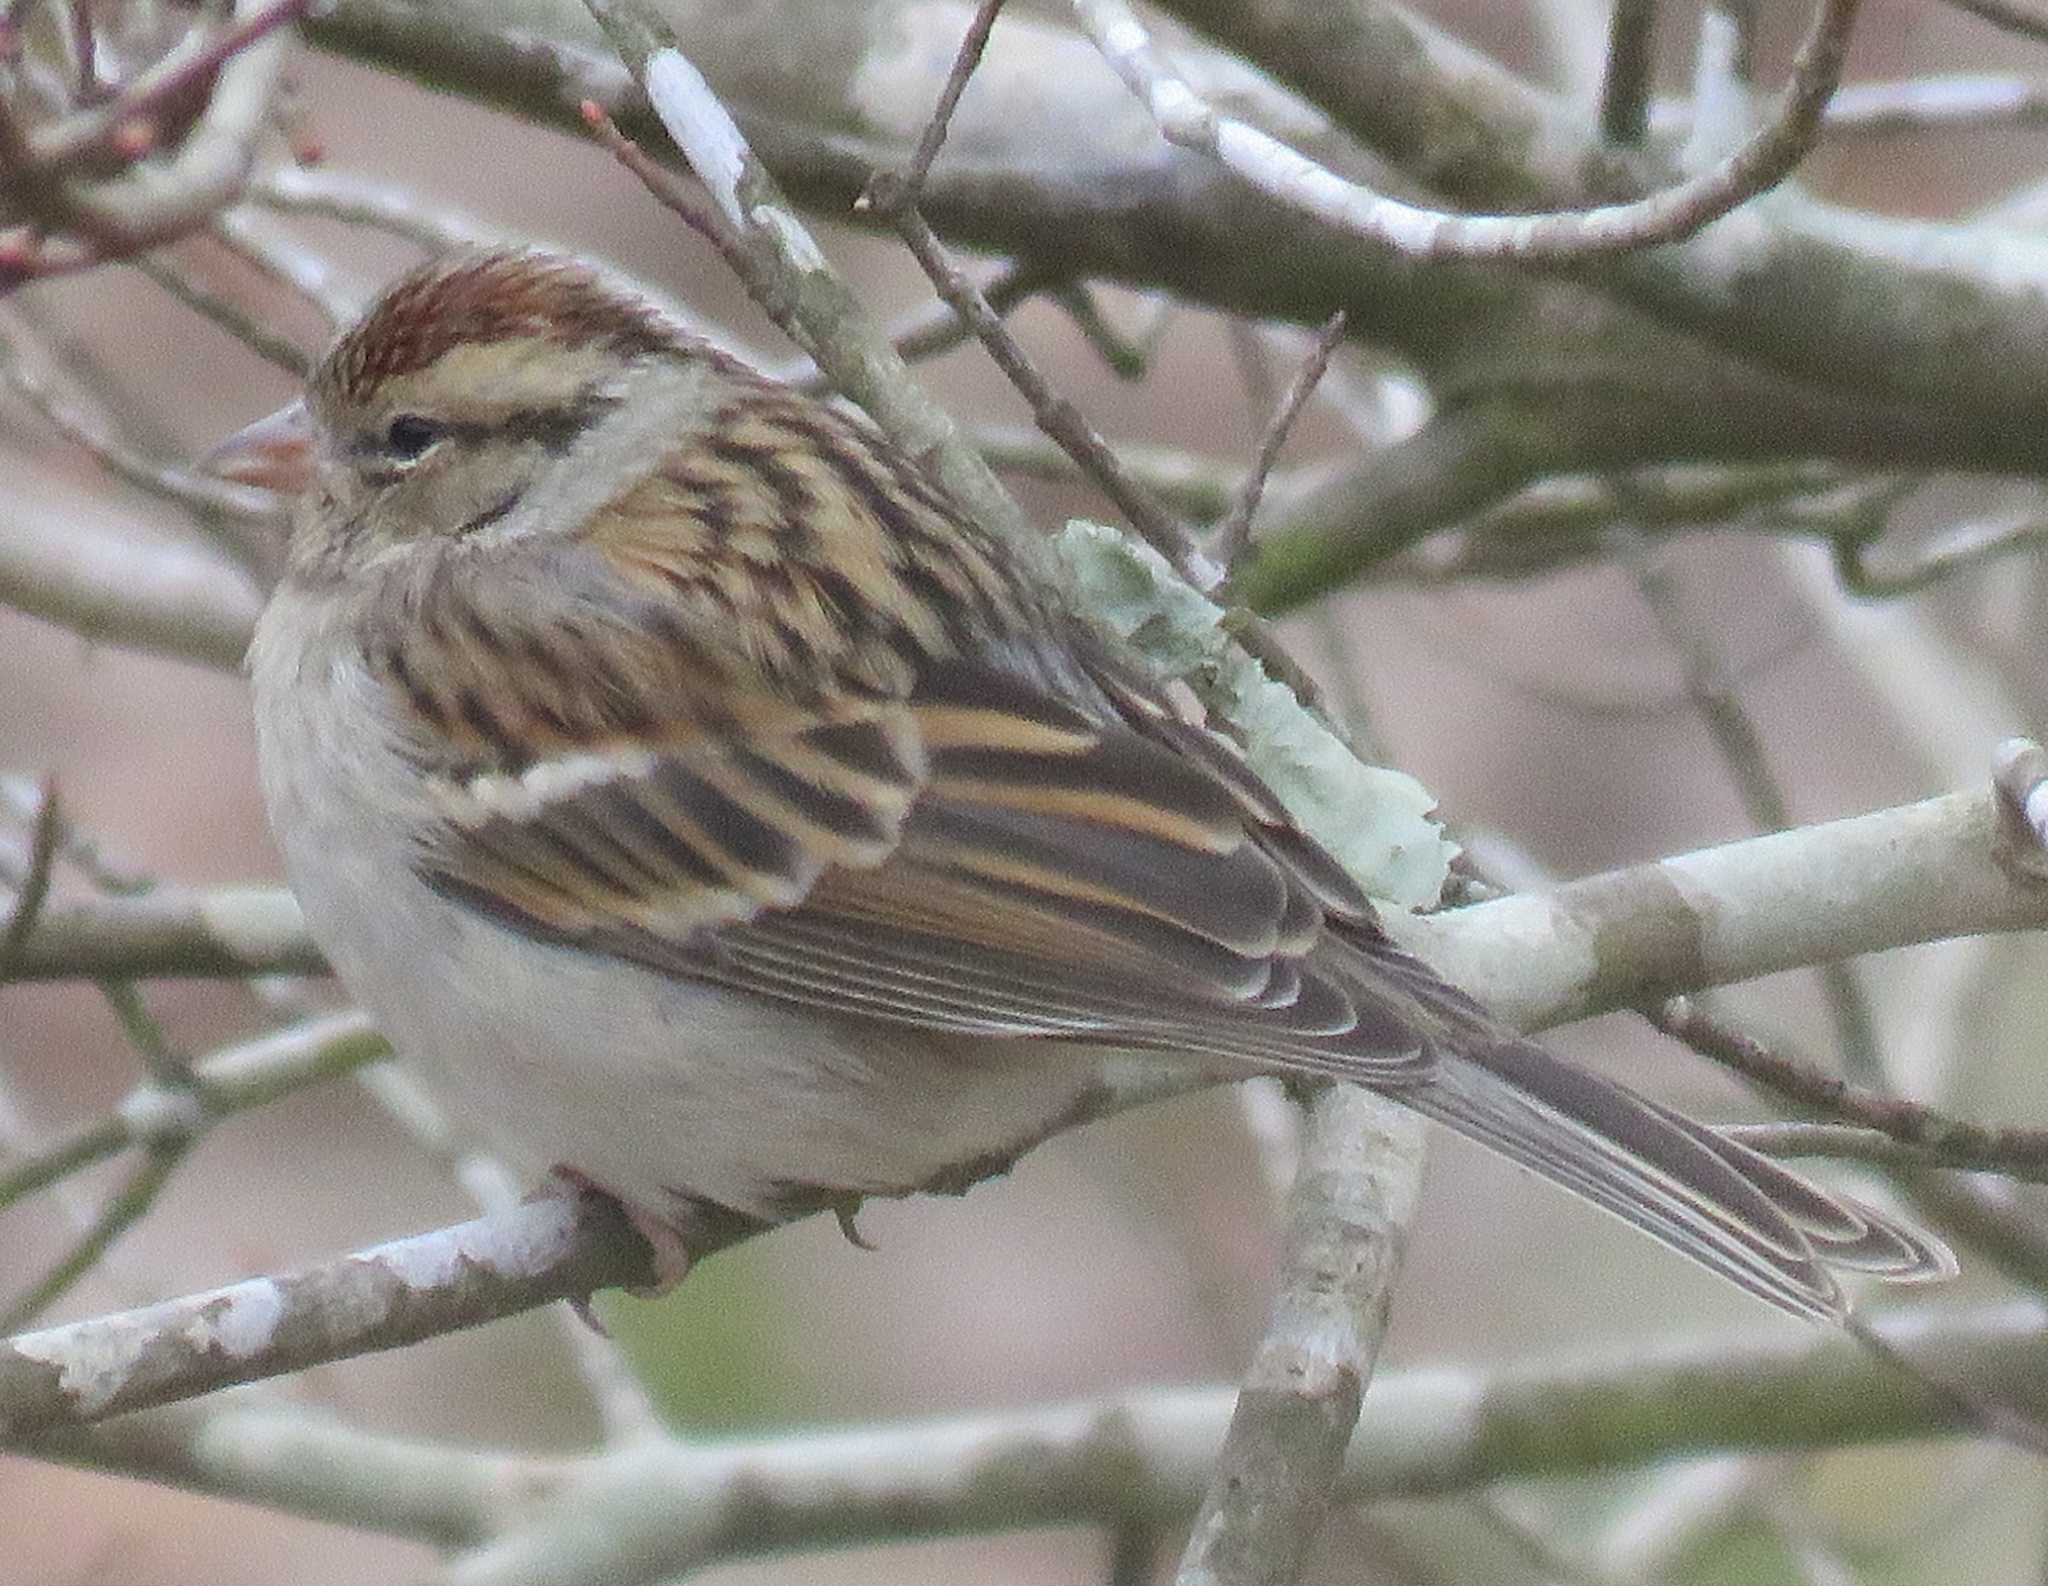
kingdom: Animalia
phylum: Chordata
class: Aves
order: Passeriformes
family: Passerellidae
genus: Spizella
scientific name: Spizella passerina
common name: Chipping sparrow
